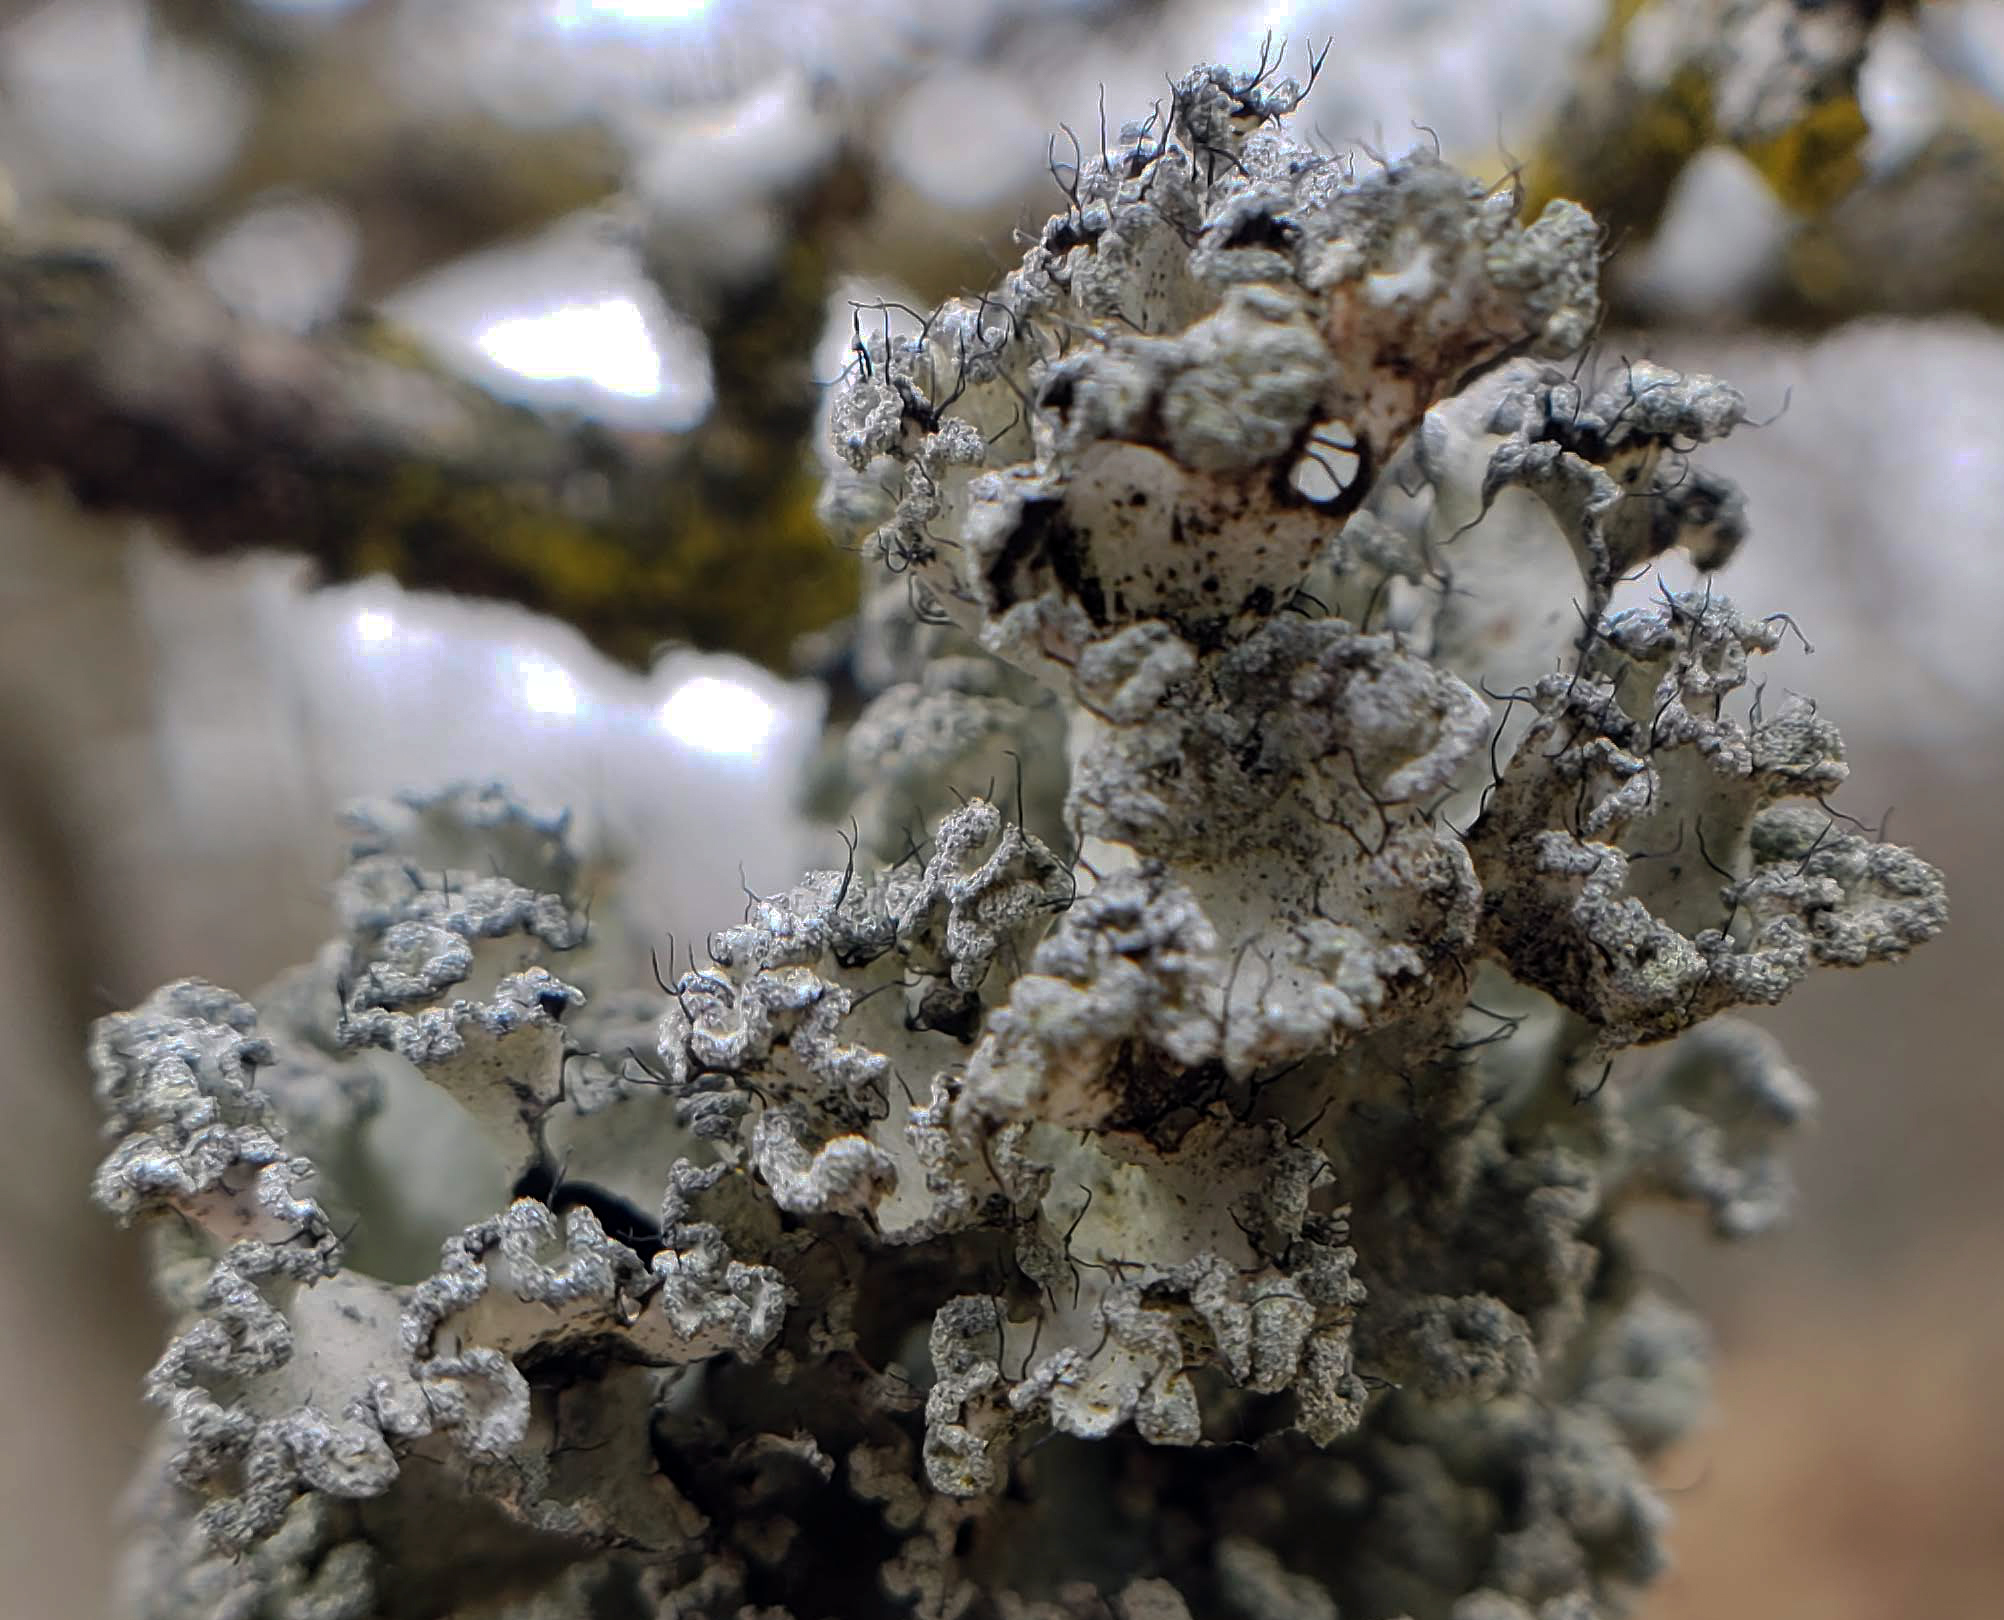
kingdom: Fungi
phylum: Ascomycota
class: Lecanoromycetes
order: Lecanorales
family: Parmeliaceae
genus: Parmotrema
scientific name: Parmotrema hypotropum
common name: Powdered ruffle lichen
